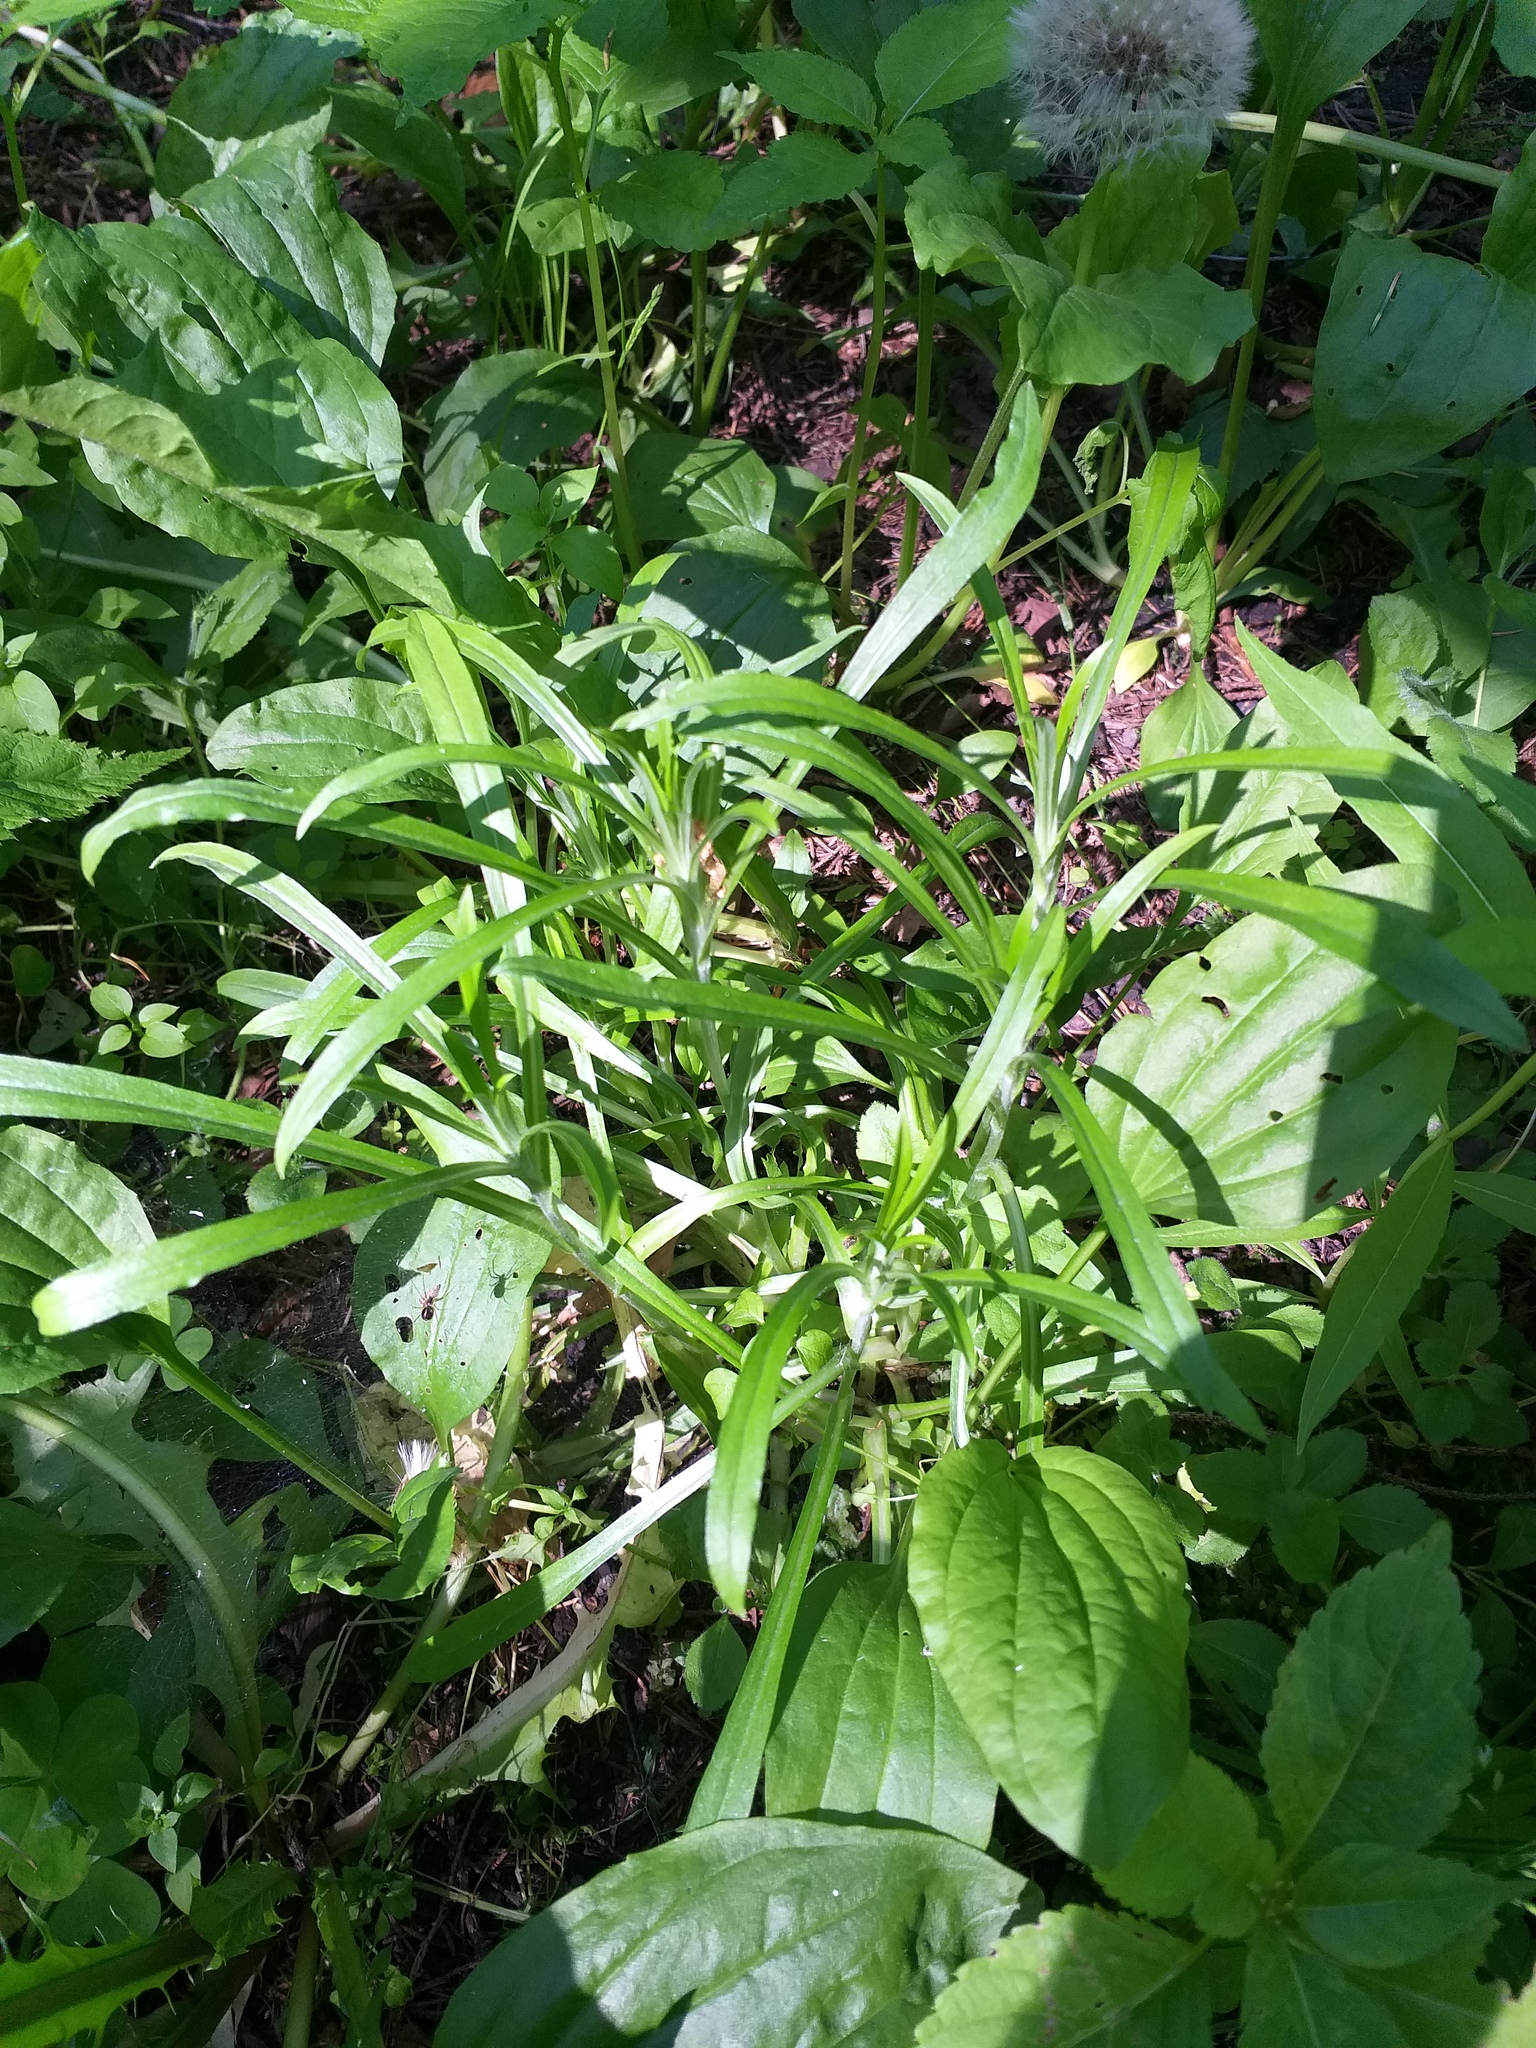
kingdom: Plantae
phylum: Tracheophyta
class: Magnoliopsida
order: Asterales
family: Asteraceae
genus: Omalotheca
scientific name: Omalotheca sylvatica
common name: Heath cudweed
